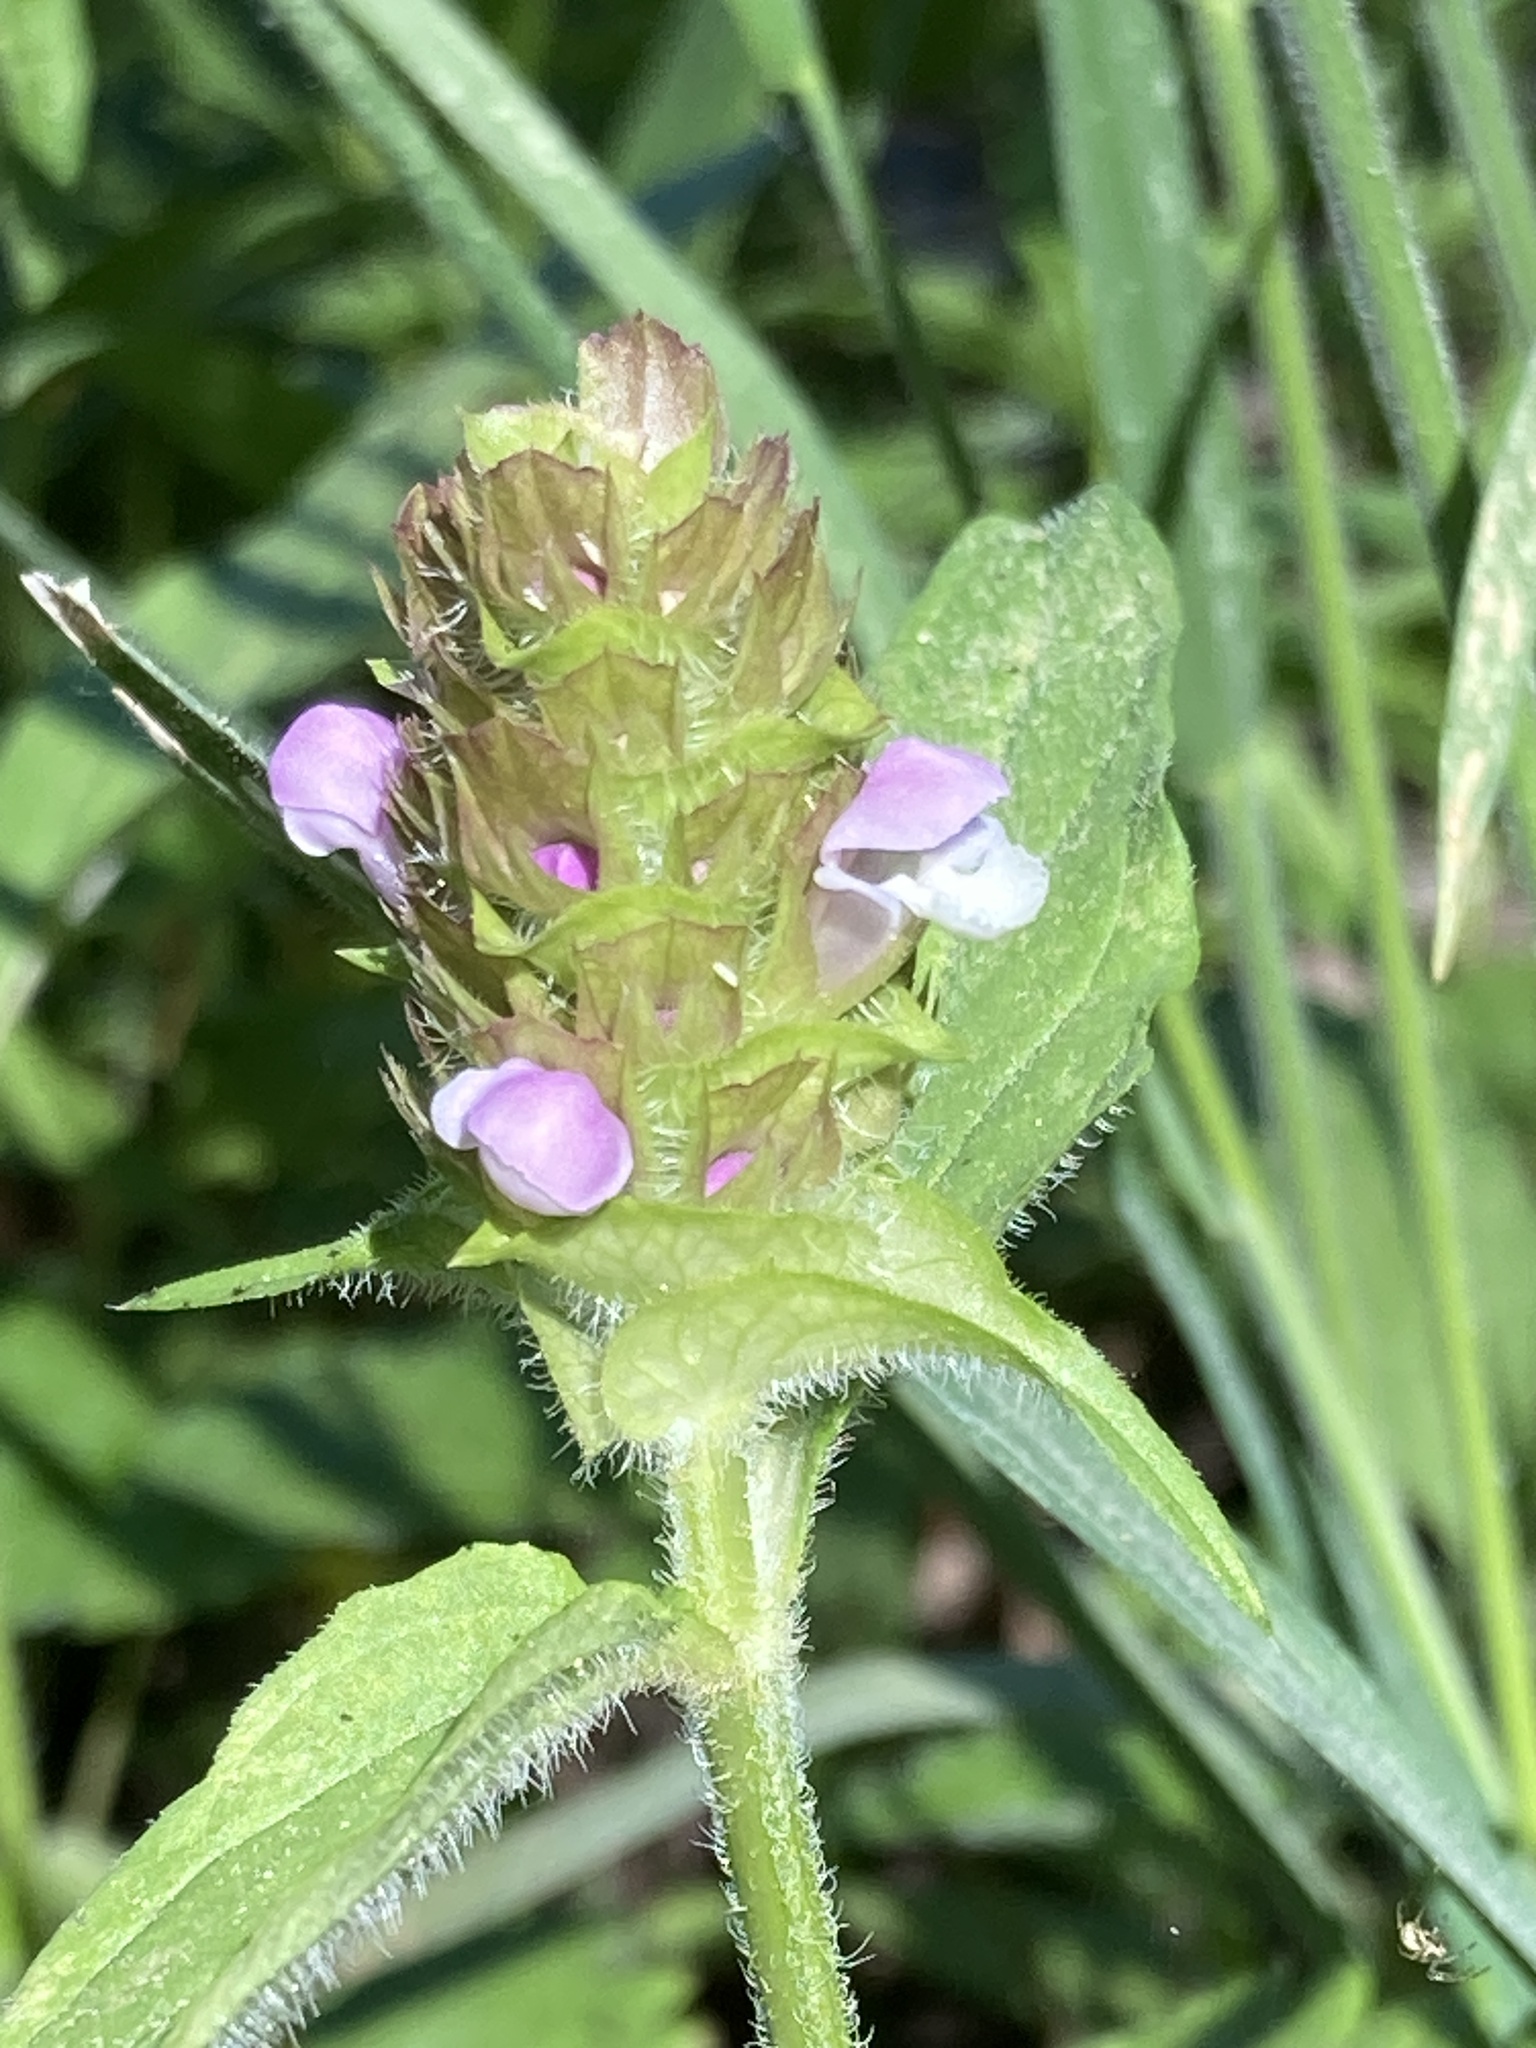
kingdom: Plantae
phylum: Tracheophyta
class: Magnoliopsida
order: Lamiales
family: Lamiaceae
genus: Prunella
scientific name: Prunella vulgaris
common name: Heal-all
